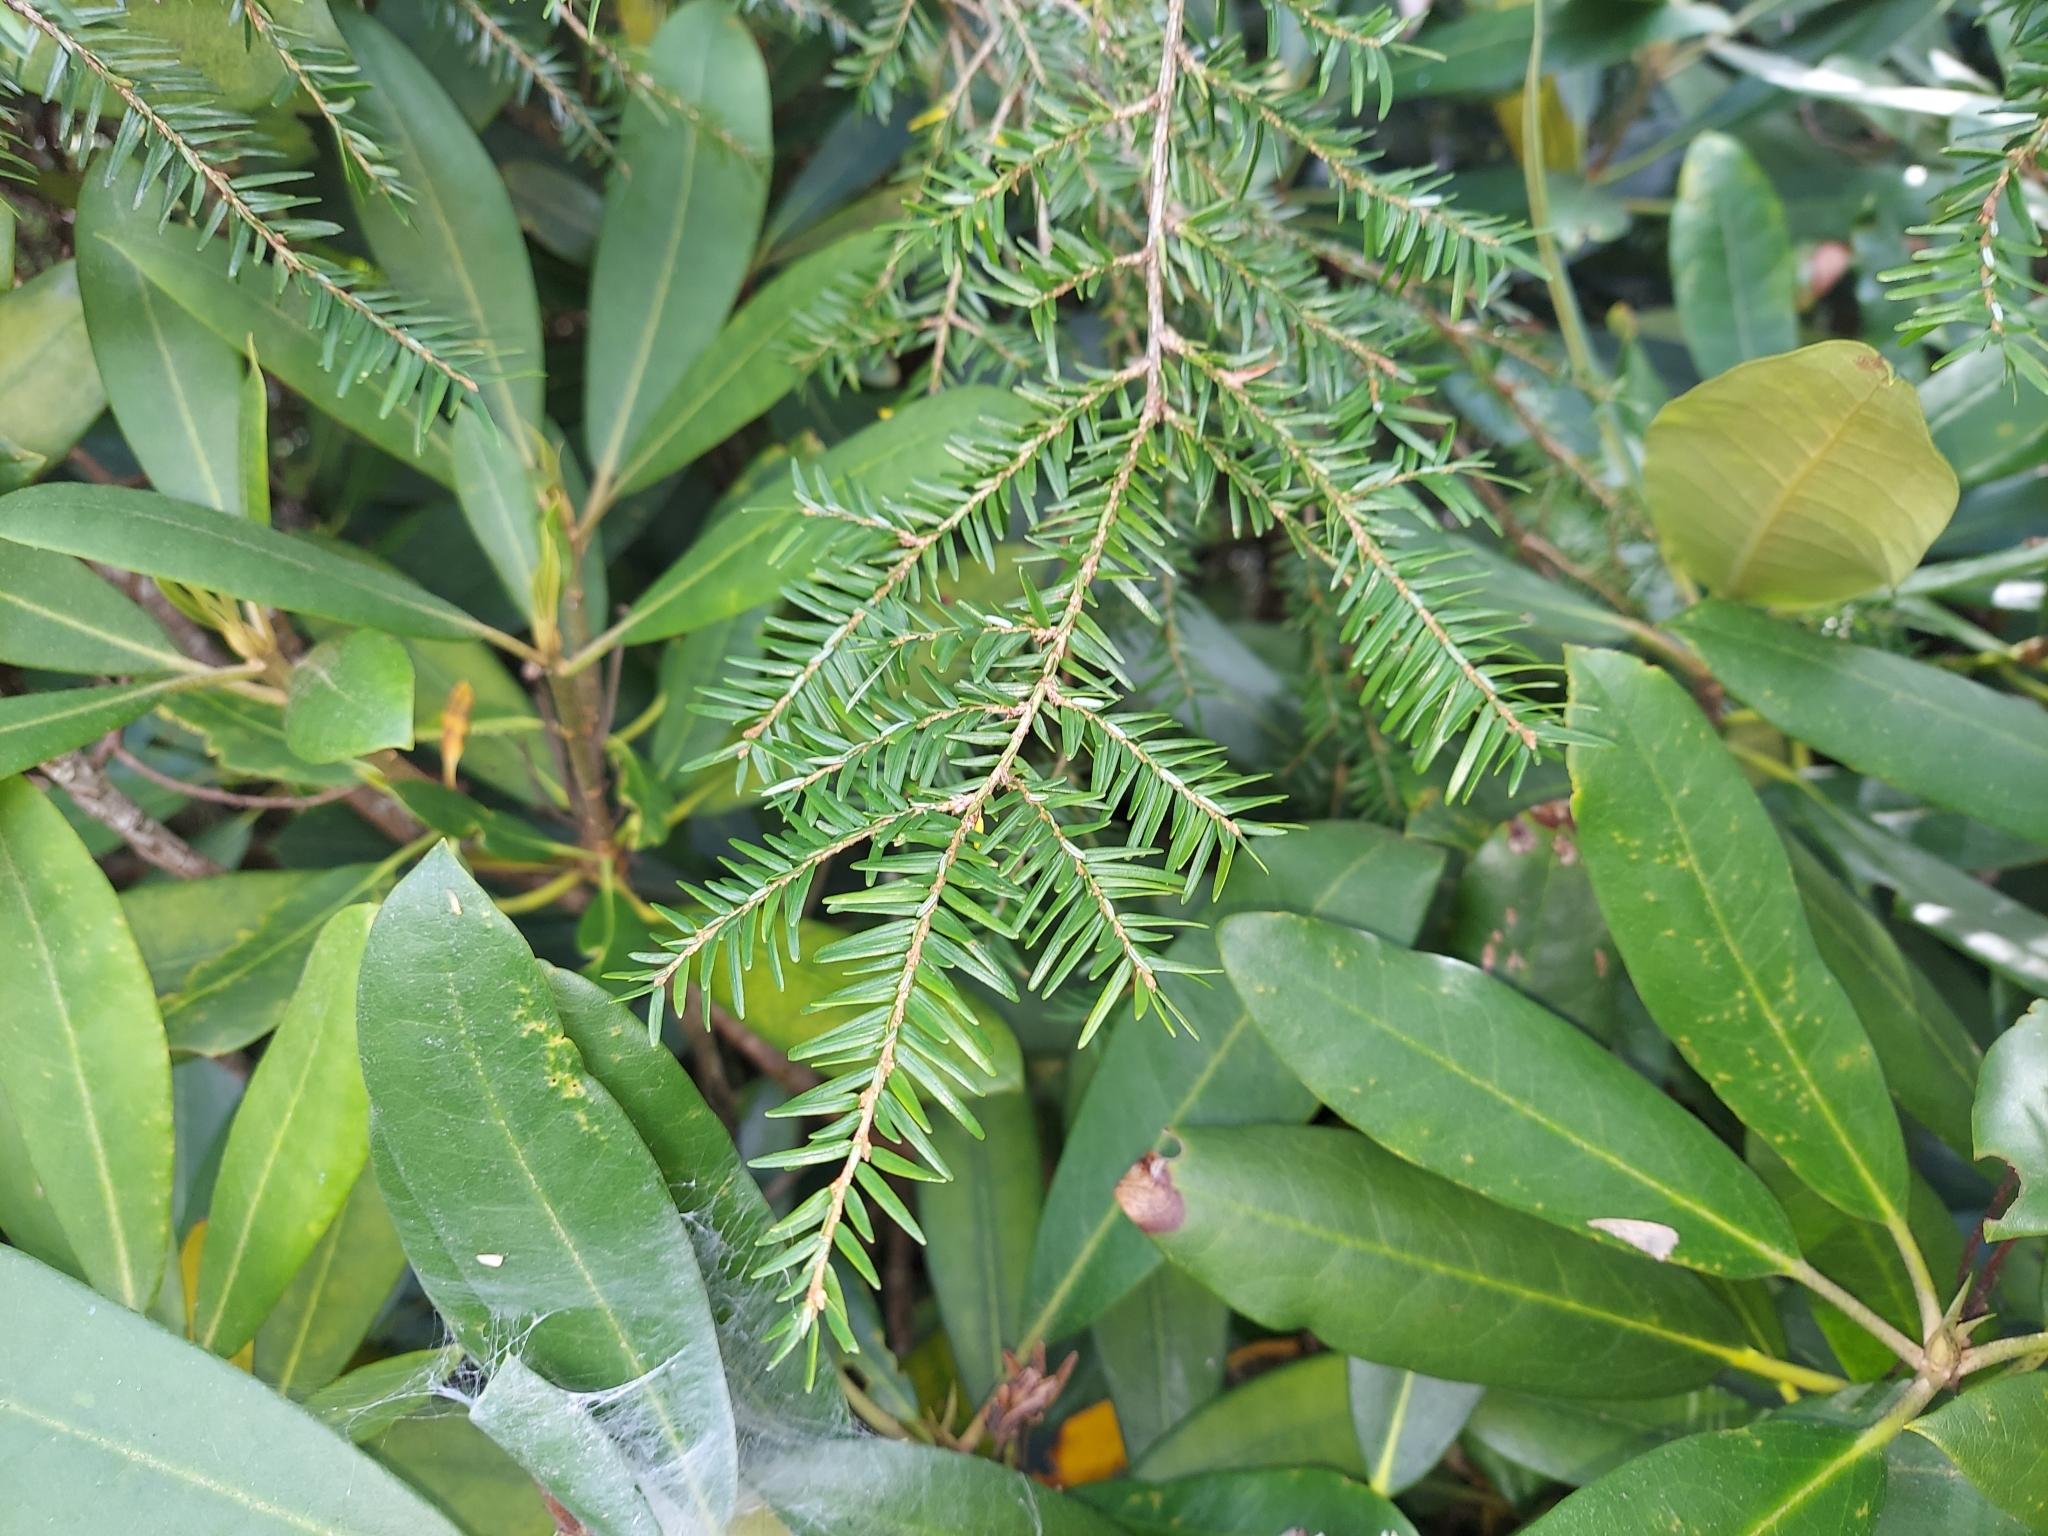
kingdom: Plantae
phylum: Tracheophyta
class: Pinopsida
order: Pinales
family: Pinaceae
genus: Tsuga
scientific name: Tsuga canadensis
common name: Eastern hemlock
